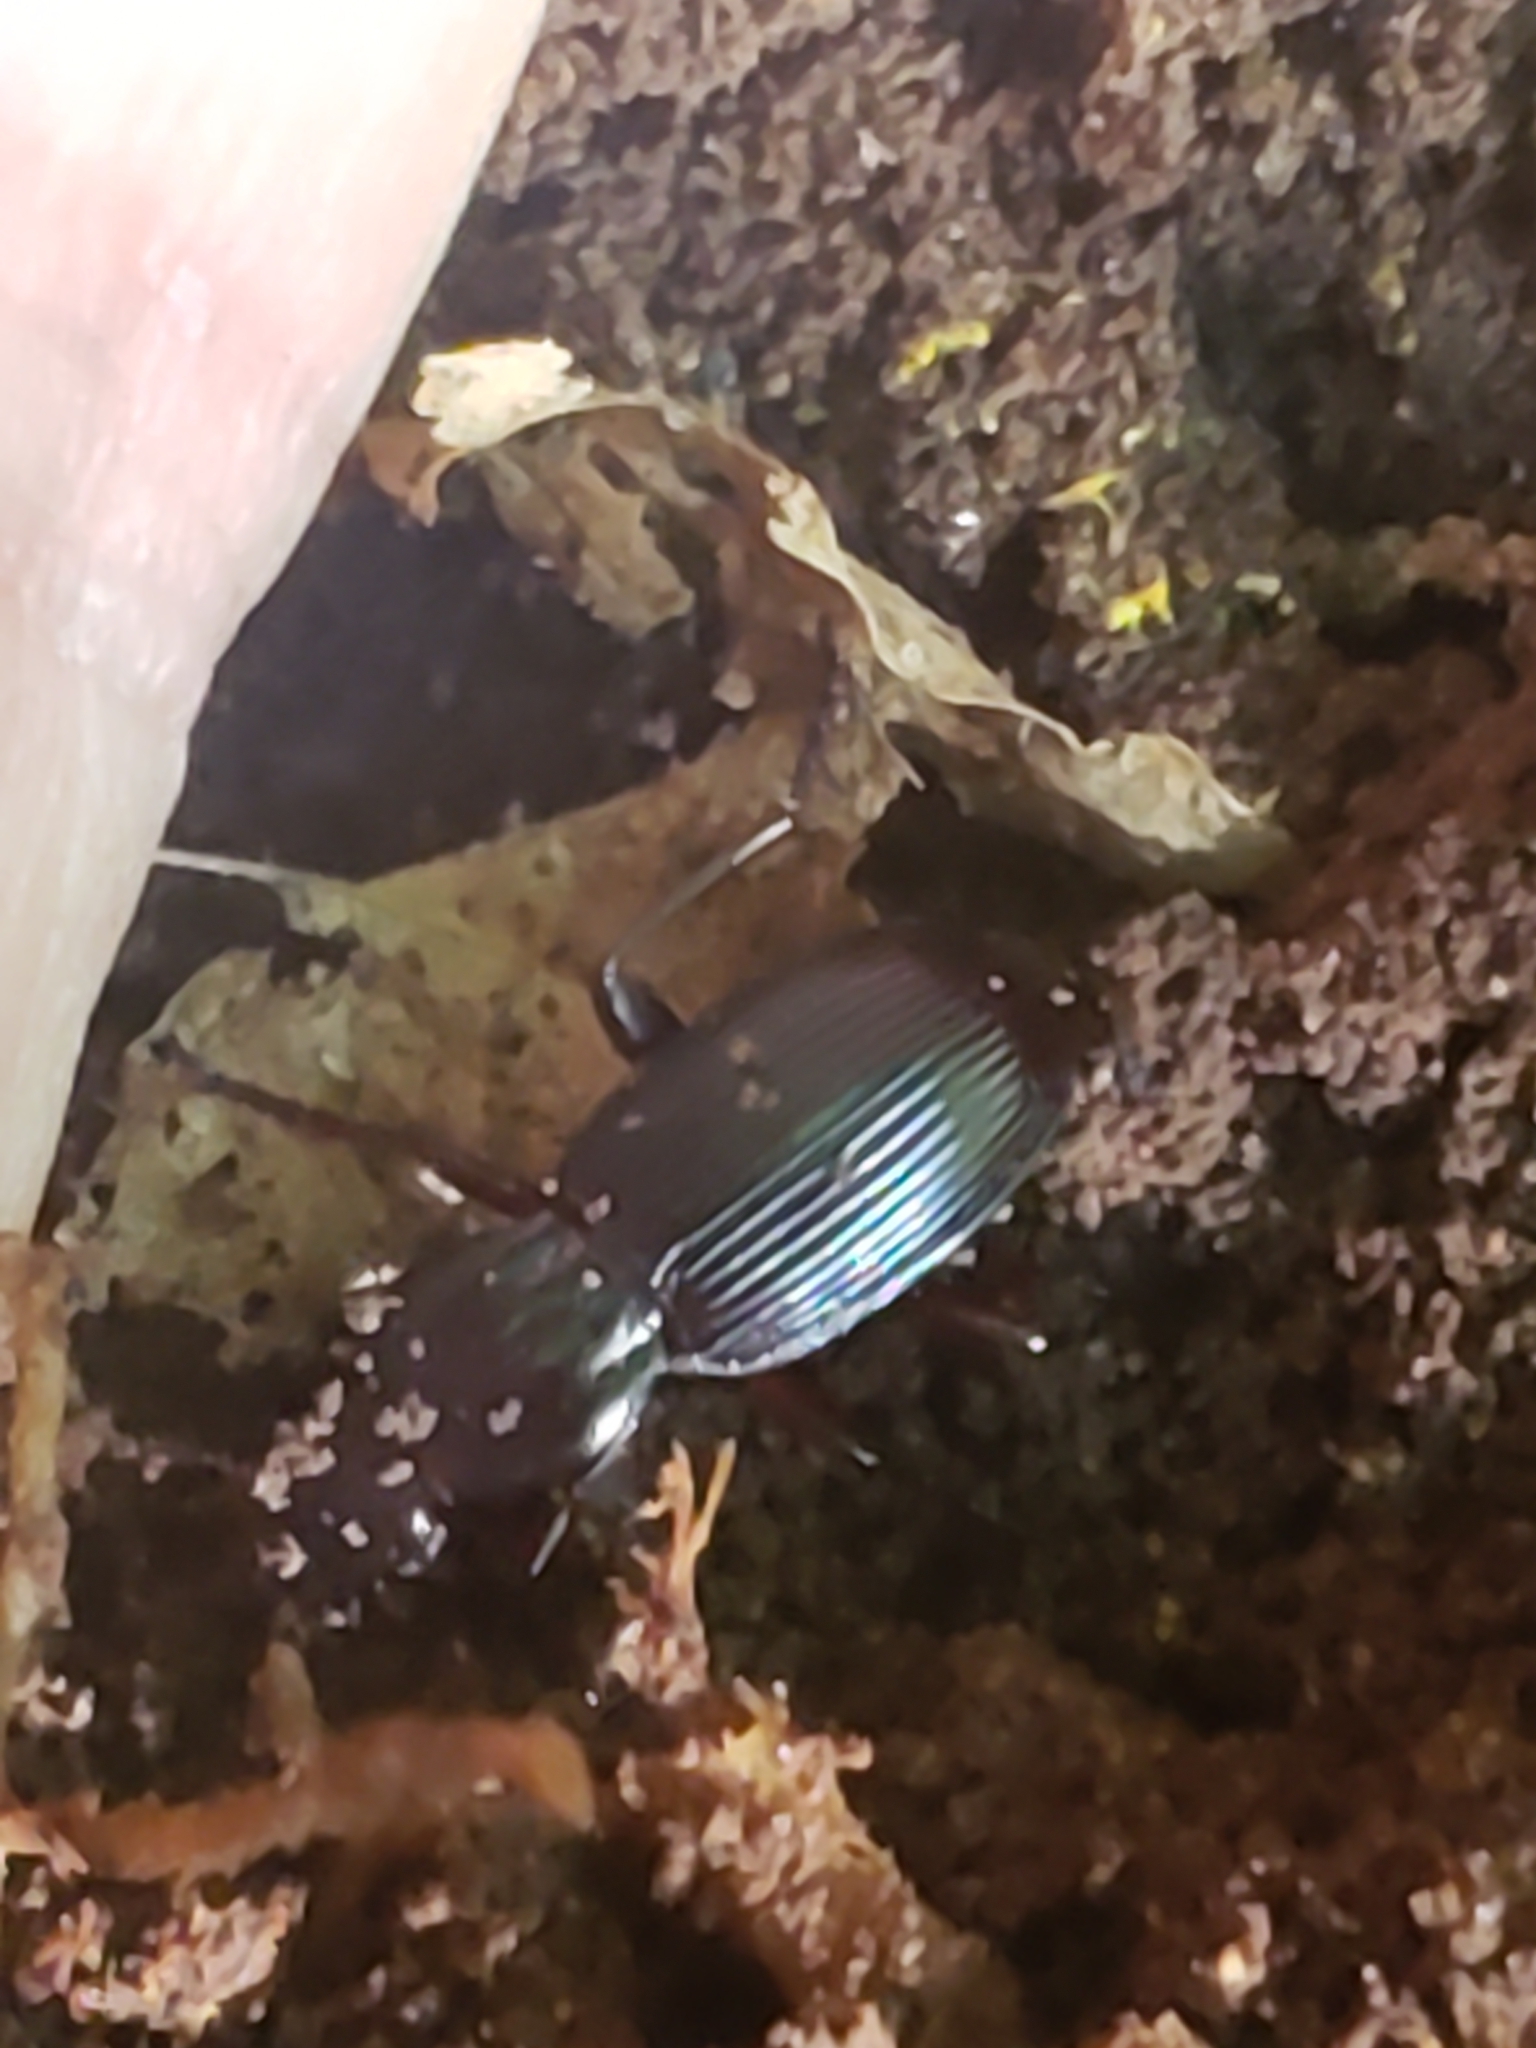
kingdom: Animalia
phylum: Arthropoda
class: Insecta
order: Coleoptera
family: Carabidae
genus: Gastrellarius
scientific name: Gastrellarius honestus
